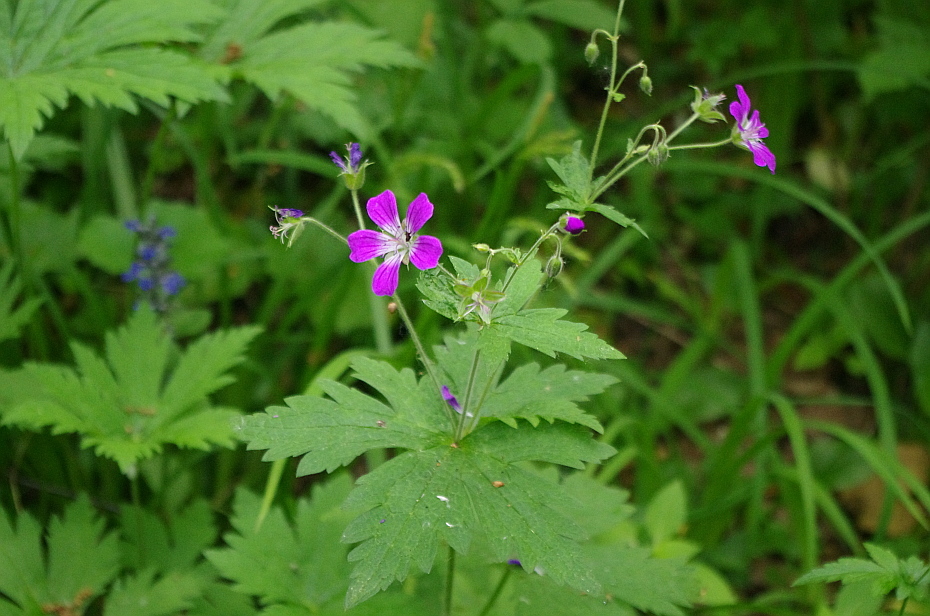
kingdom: Plantae
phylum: Tracheophyta
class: Magnoliopsida
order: Geraniales
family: Geraniaceae
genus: Geranium
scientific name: Geranium sylvaticum
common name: Wood crane's-bill
